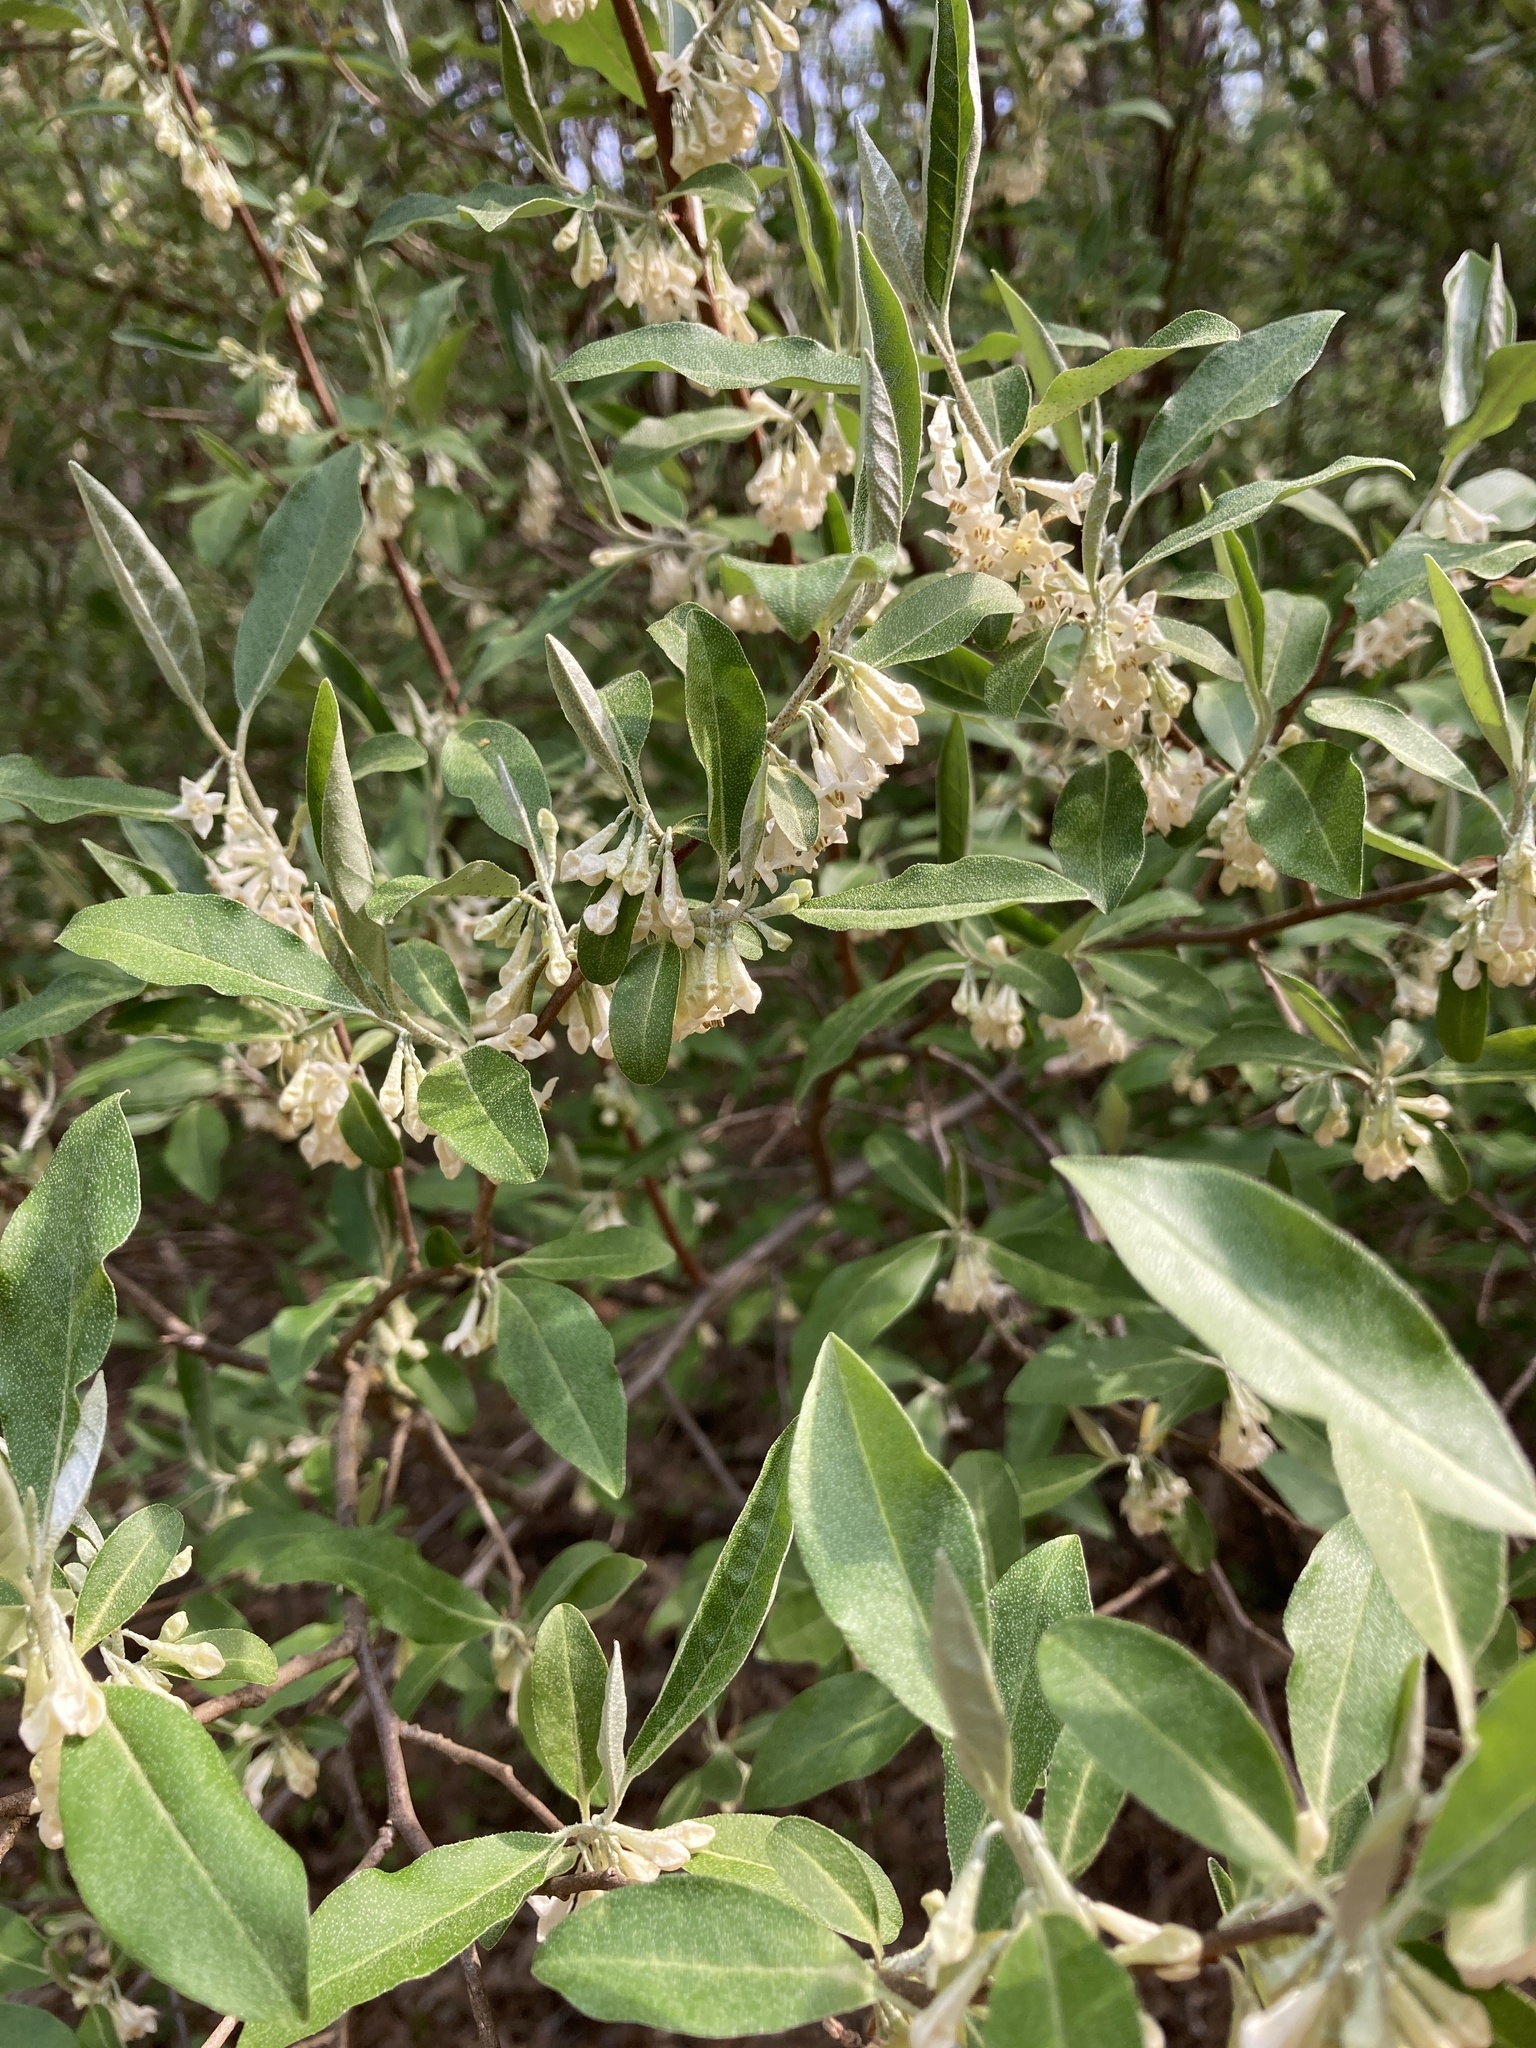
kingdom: Plantae
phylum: Tracheophyta
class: Magnoliopsida
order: Rosales
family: Elaeagnaceae
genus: Elaeagnus
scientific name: Elaeagnus umbellata
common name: Autumn olive
